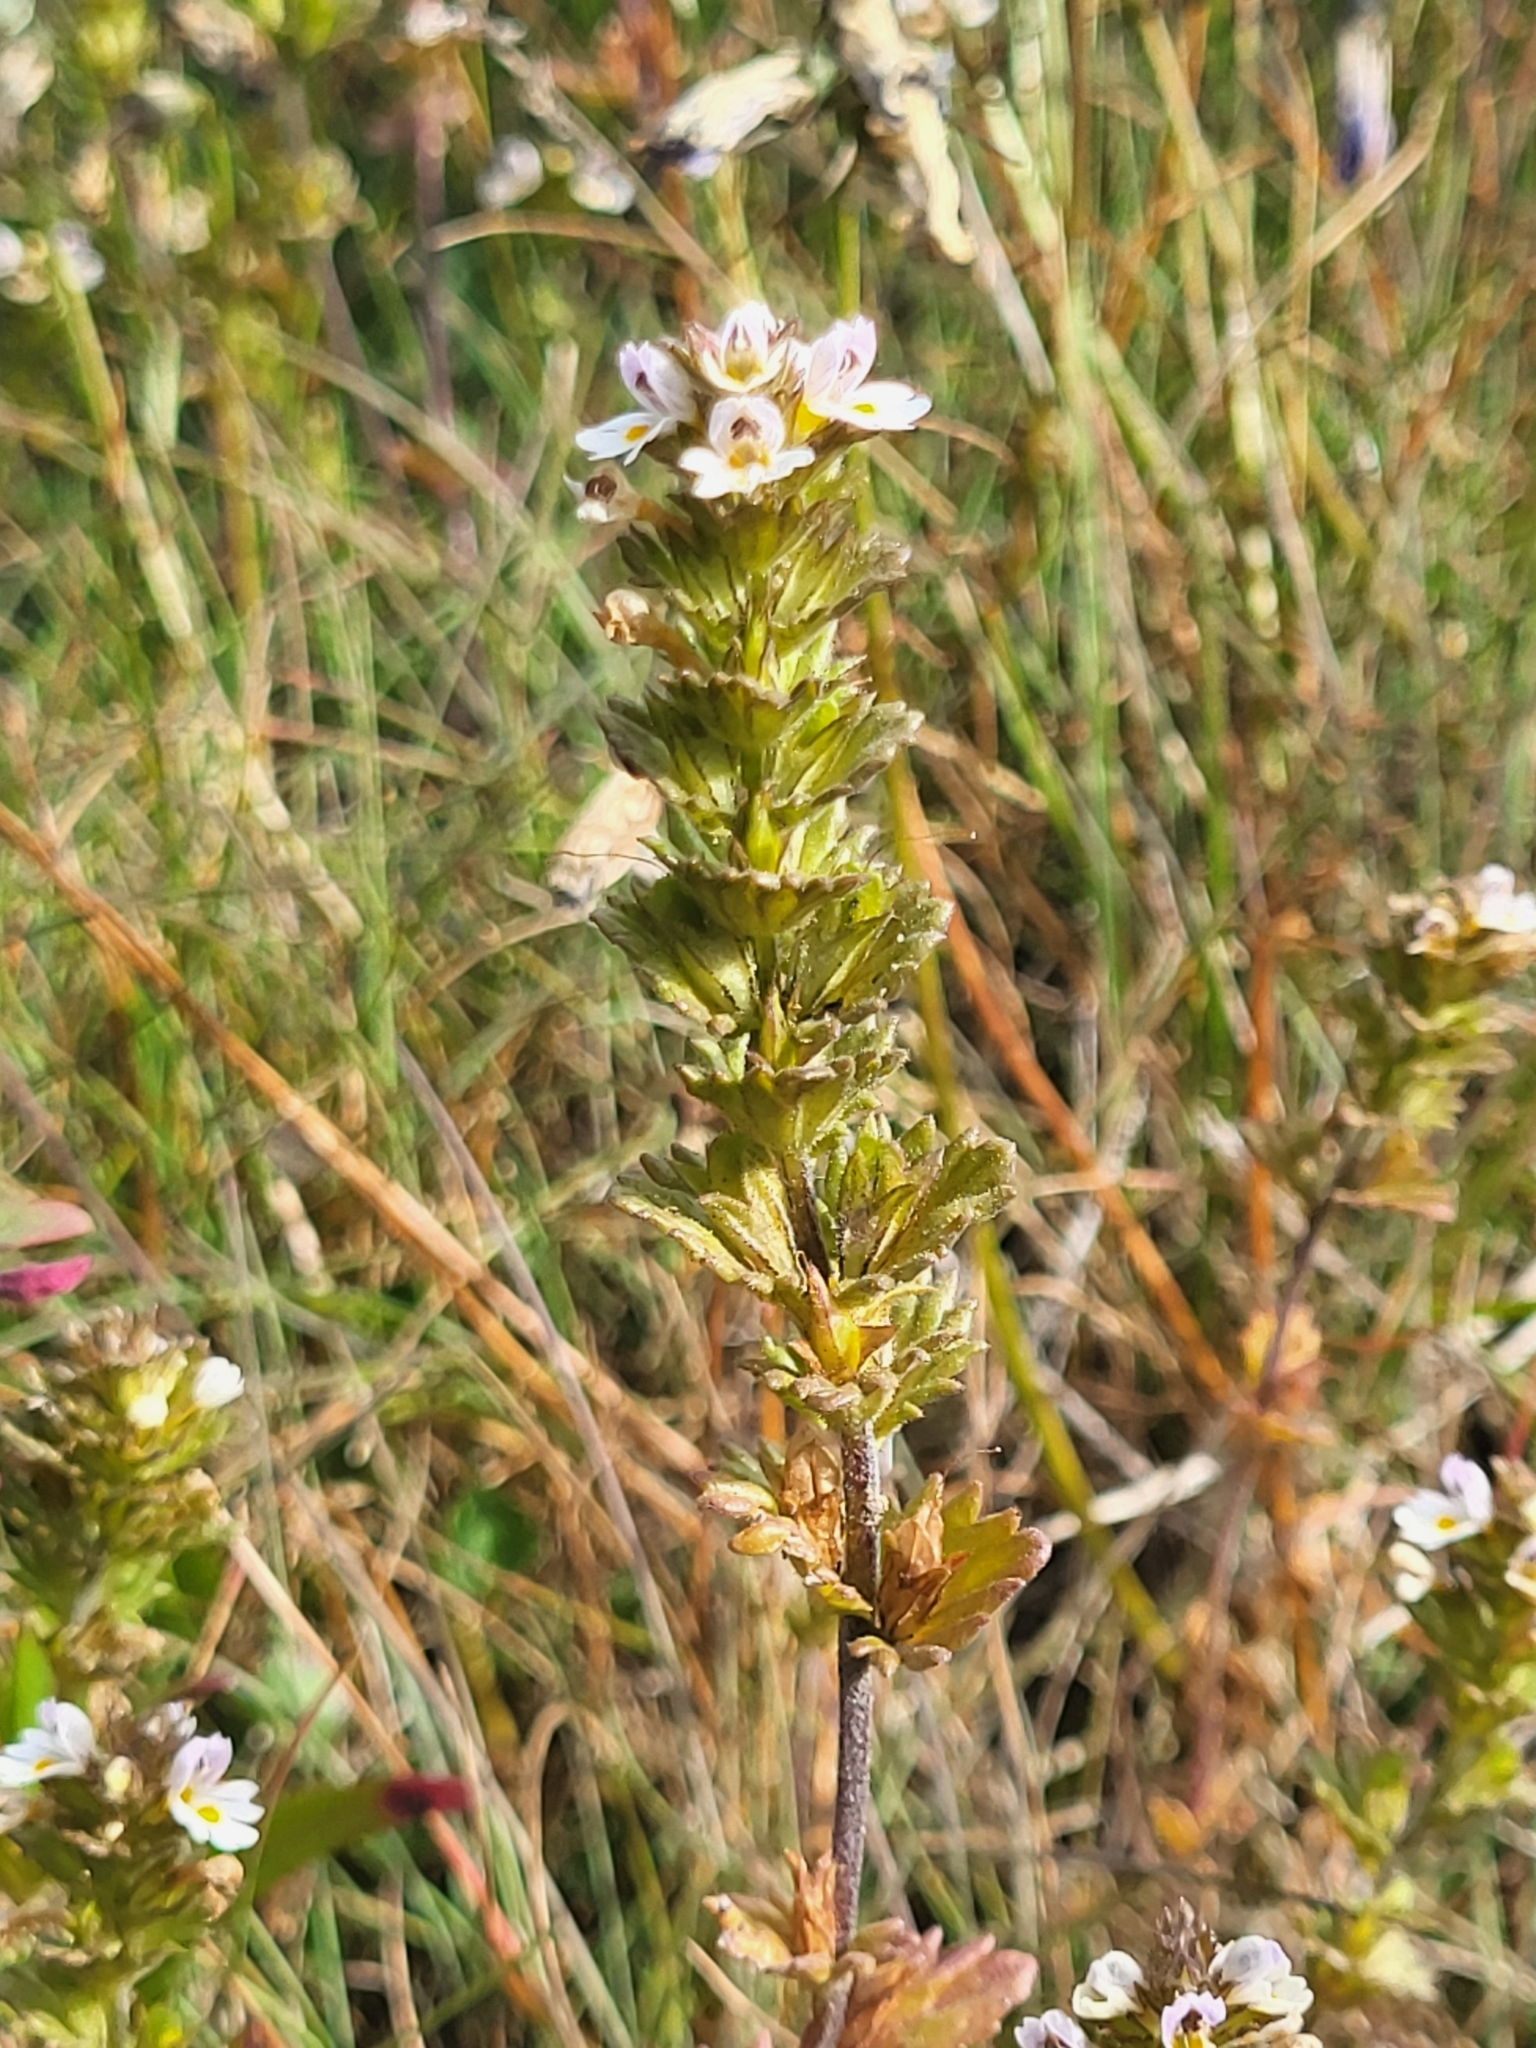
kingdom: Plantae
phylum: Tracheophyta
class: Magnoliopsida
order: Lamiales
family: Orobanchaceae
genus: Euphrasia
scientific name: Euphrasia frigida
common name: An eyebright
